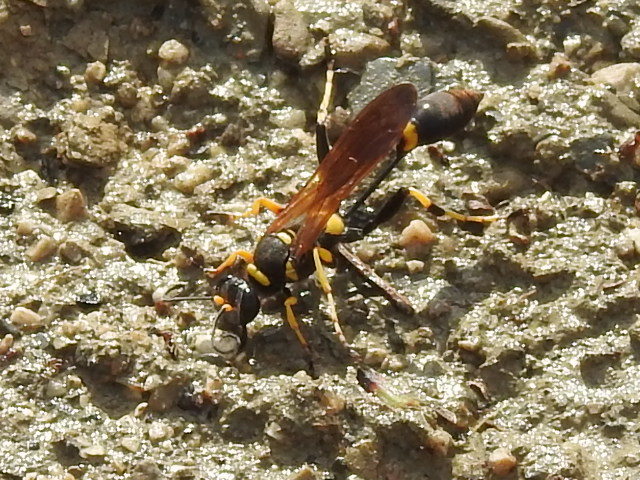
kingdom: Animalia
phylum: Arthropoda
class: Insecta
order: Hymenoptera
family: Sphecidae
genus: Sceliphron
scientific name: Sceliphron caementarium
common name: Mud dauber
